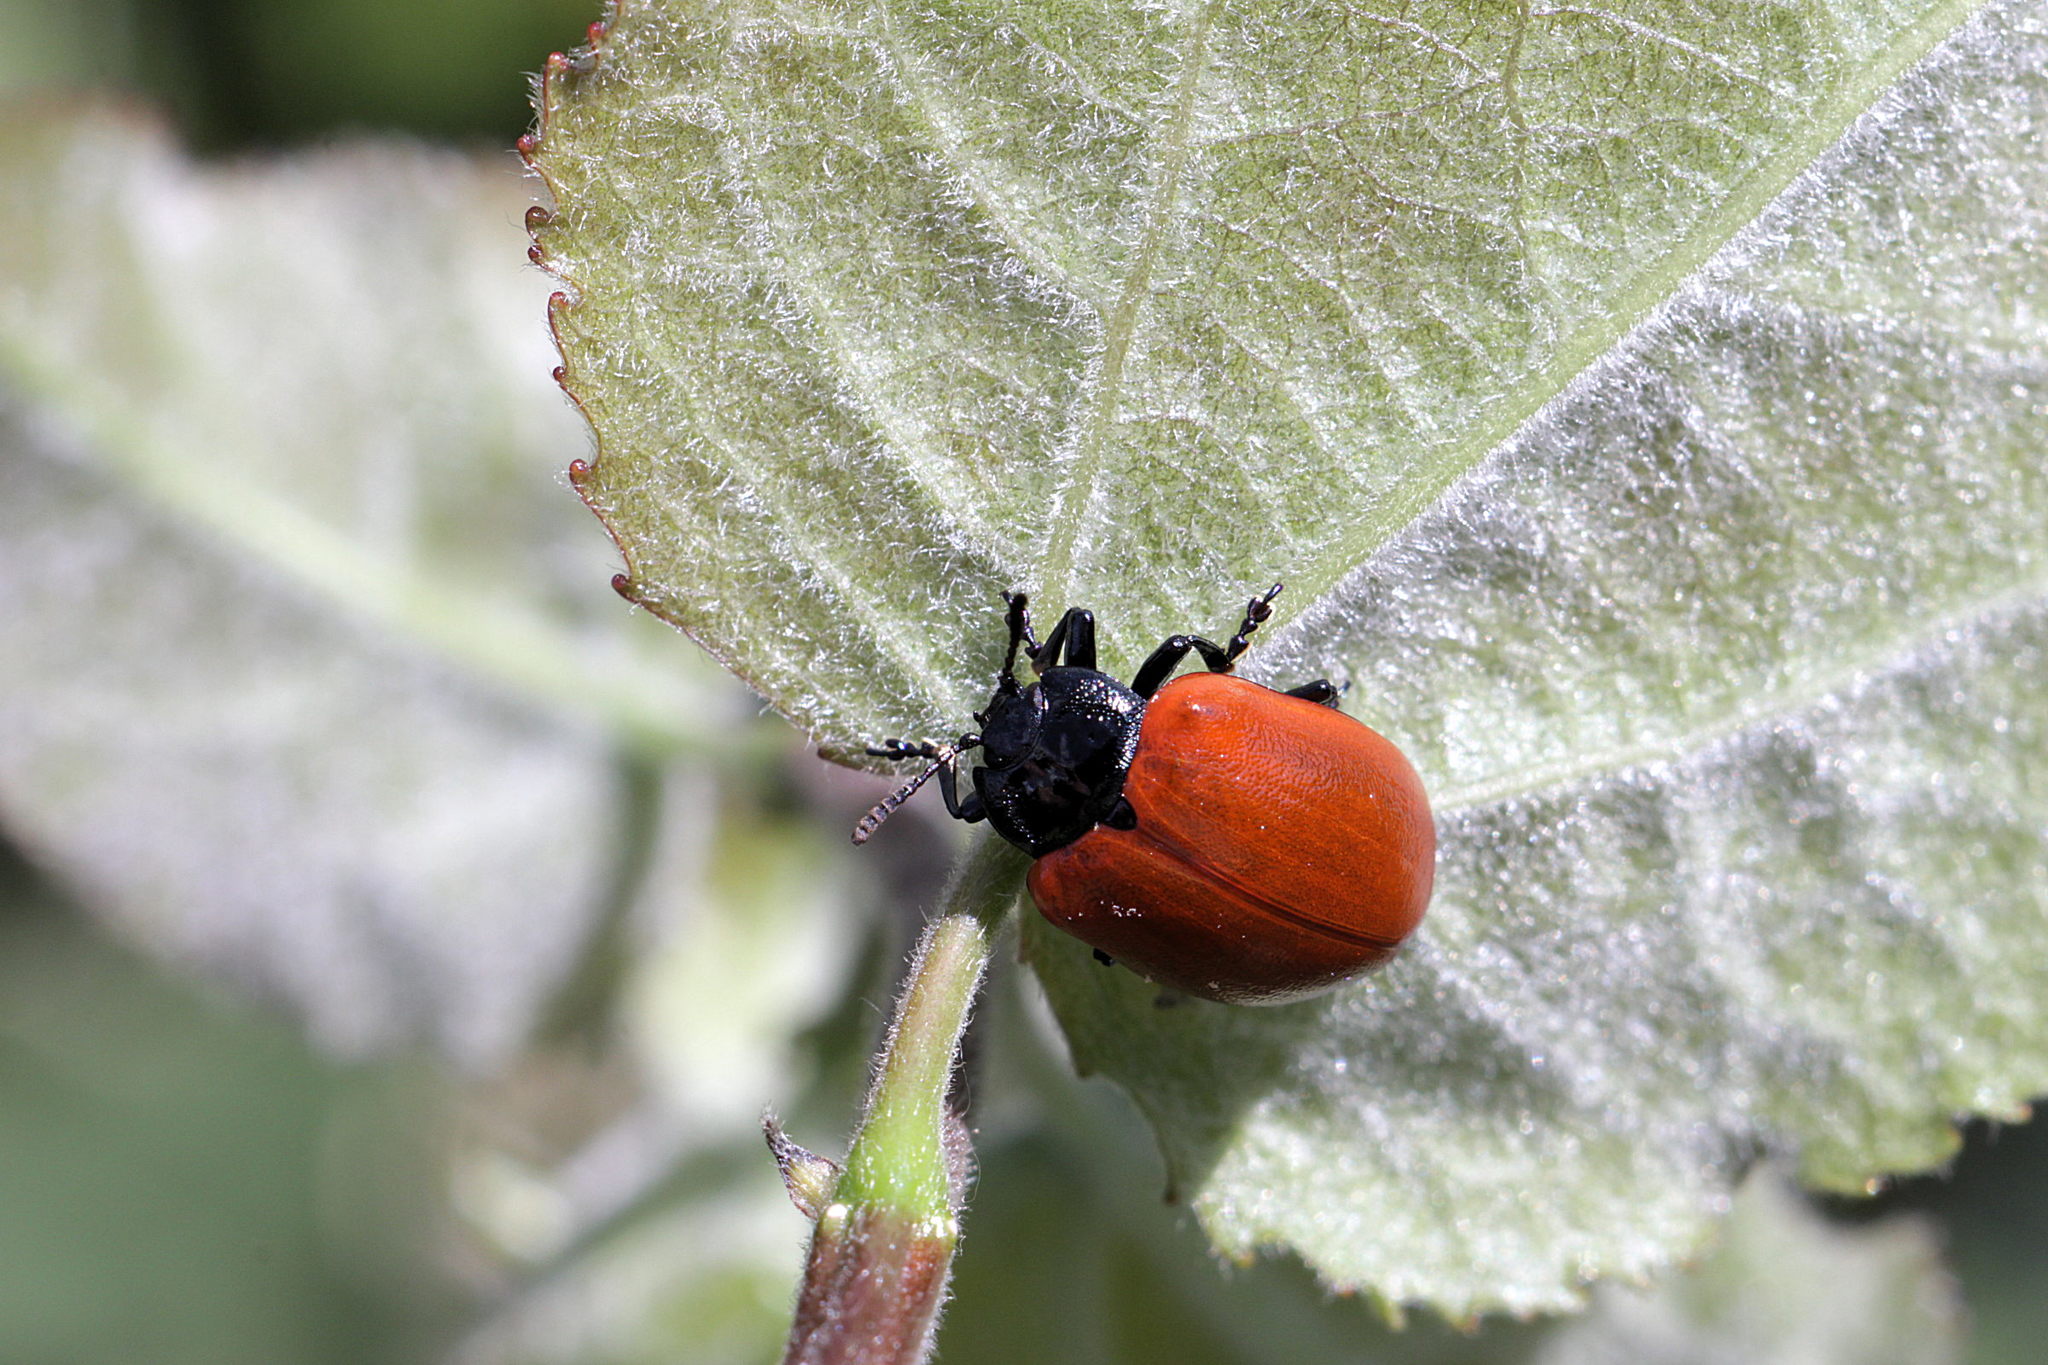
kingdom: Animalia
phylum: Arthropoda
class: Insecta
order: Coleoptera
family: Chrysomelidae
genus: Chrysomela
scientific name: Chrysomela populi
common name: Red poplar leaf beetle
